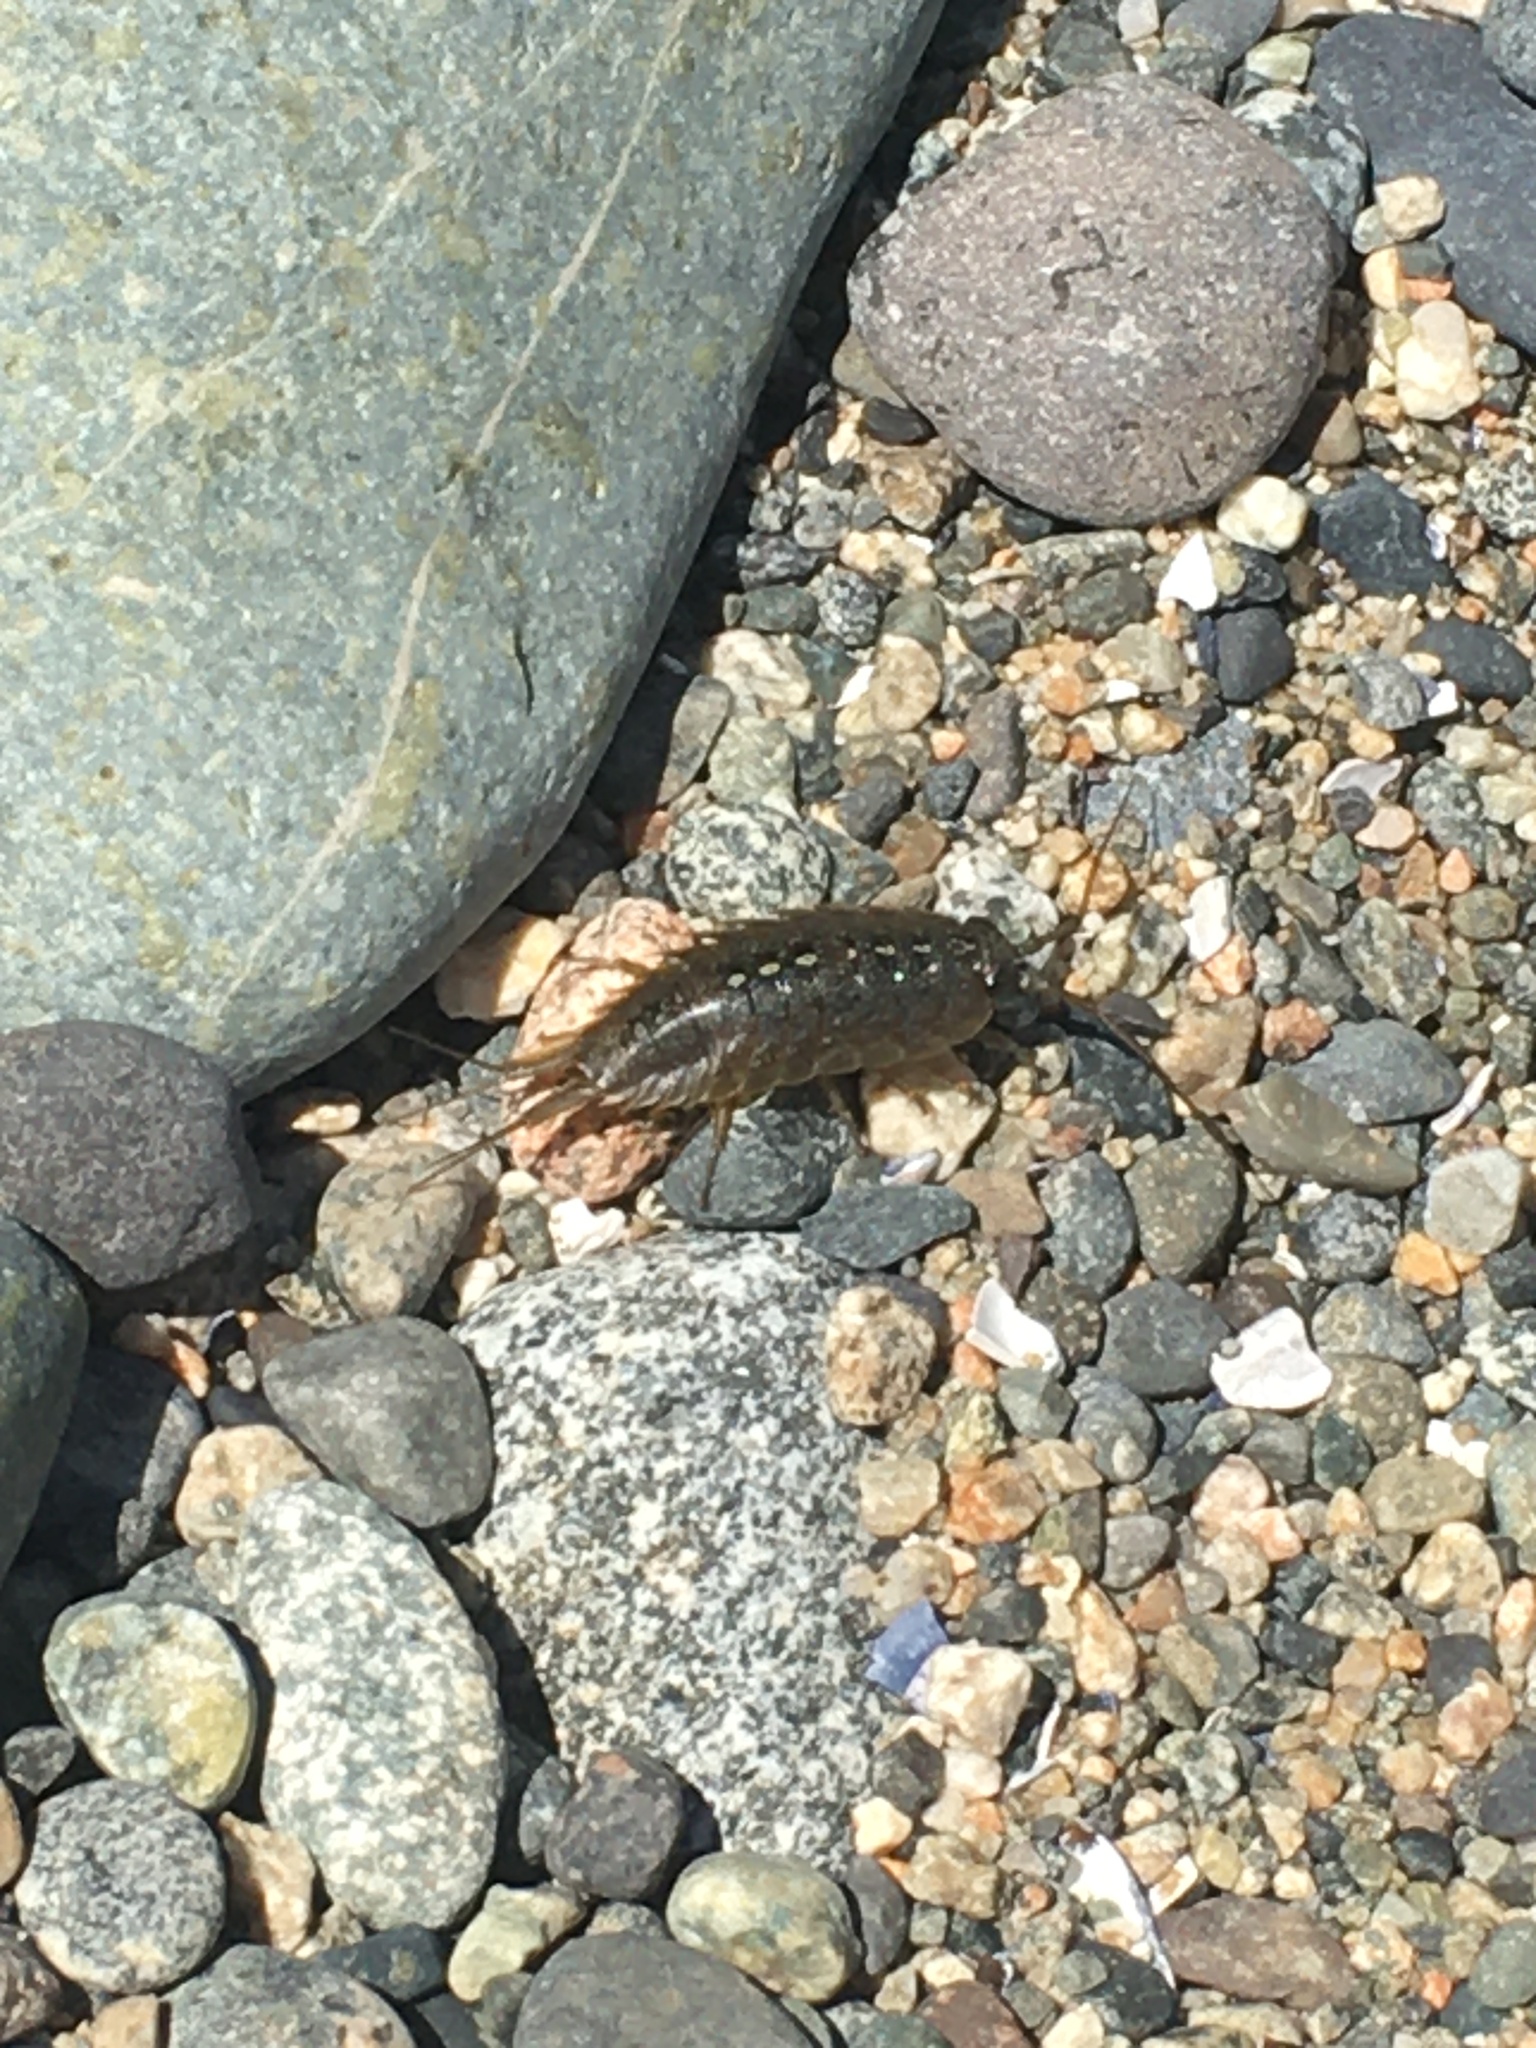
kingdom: Animalia
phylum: Arthropoda
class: Malacostraca
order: Isopoda
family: Ligiidae
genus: Ligia
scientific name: Ligia occidentalis
